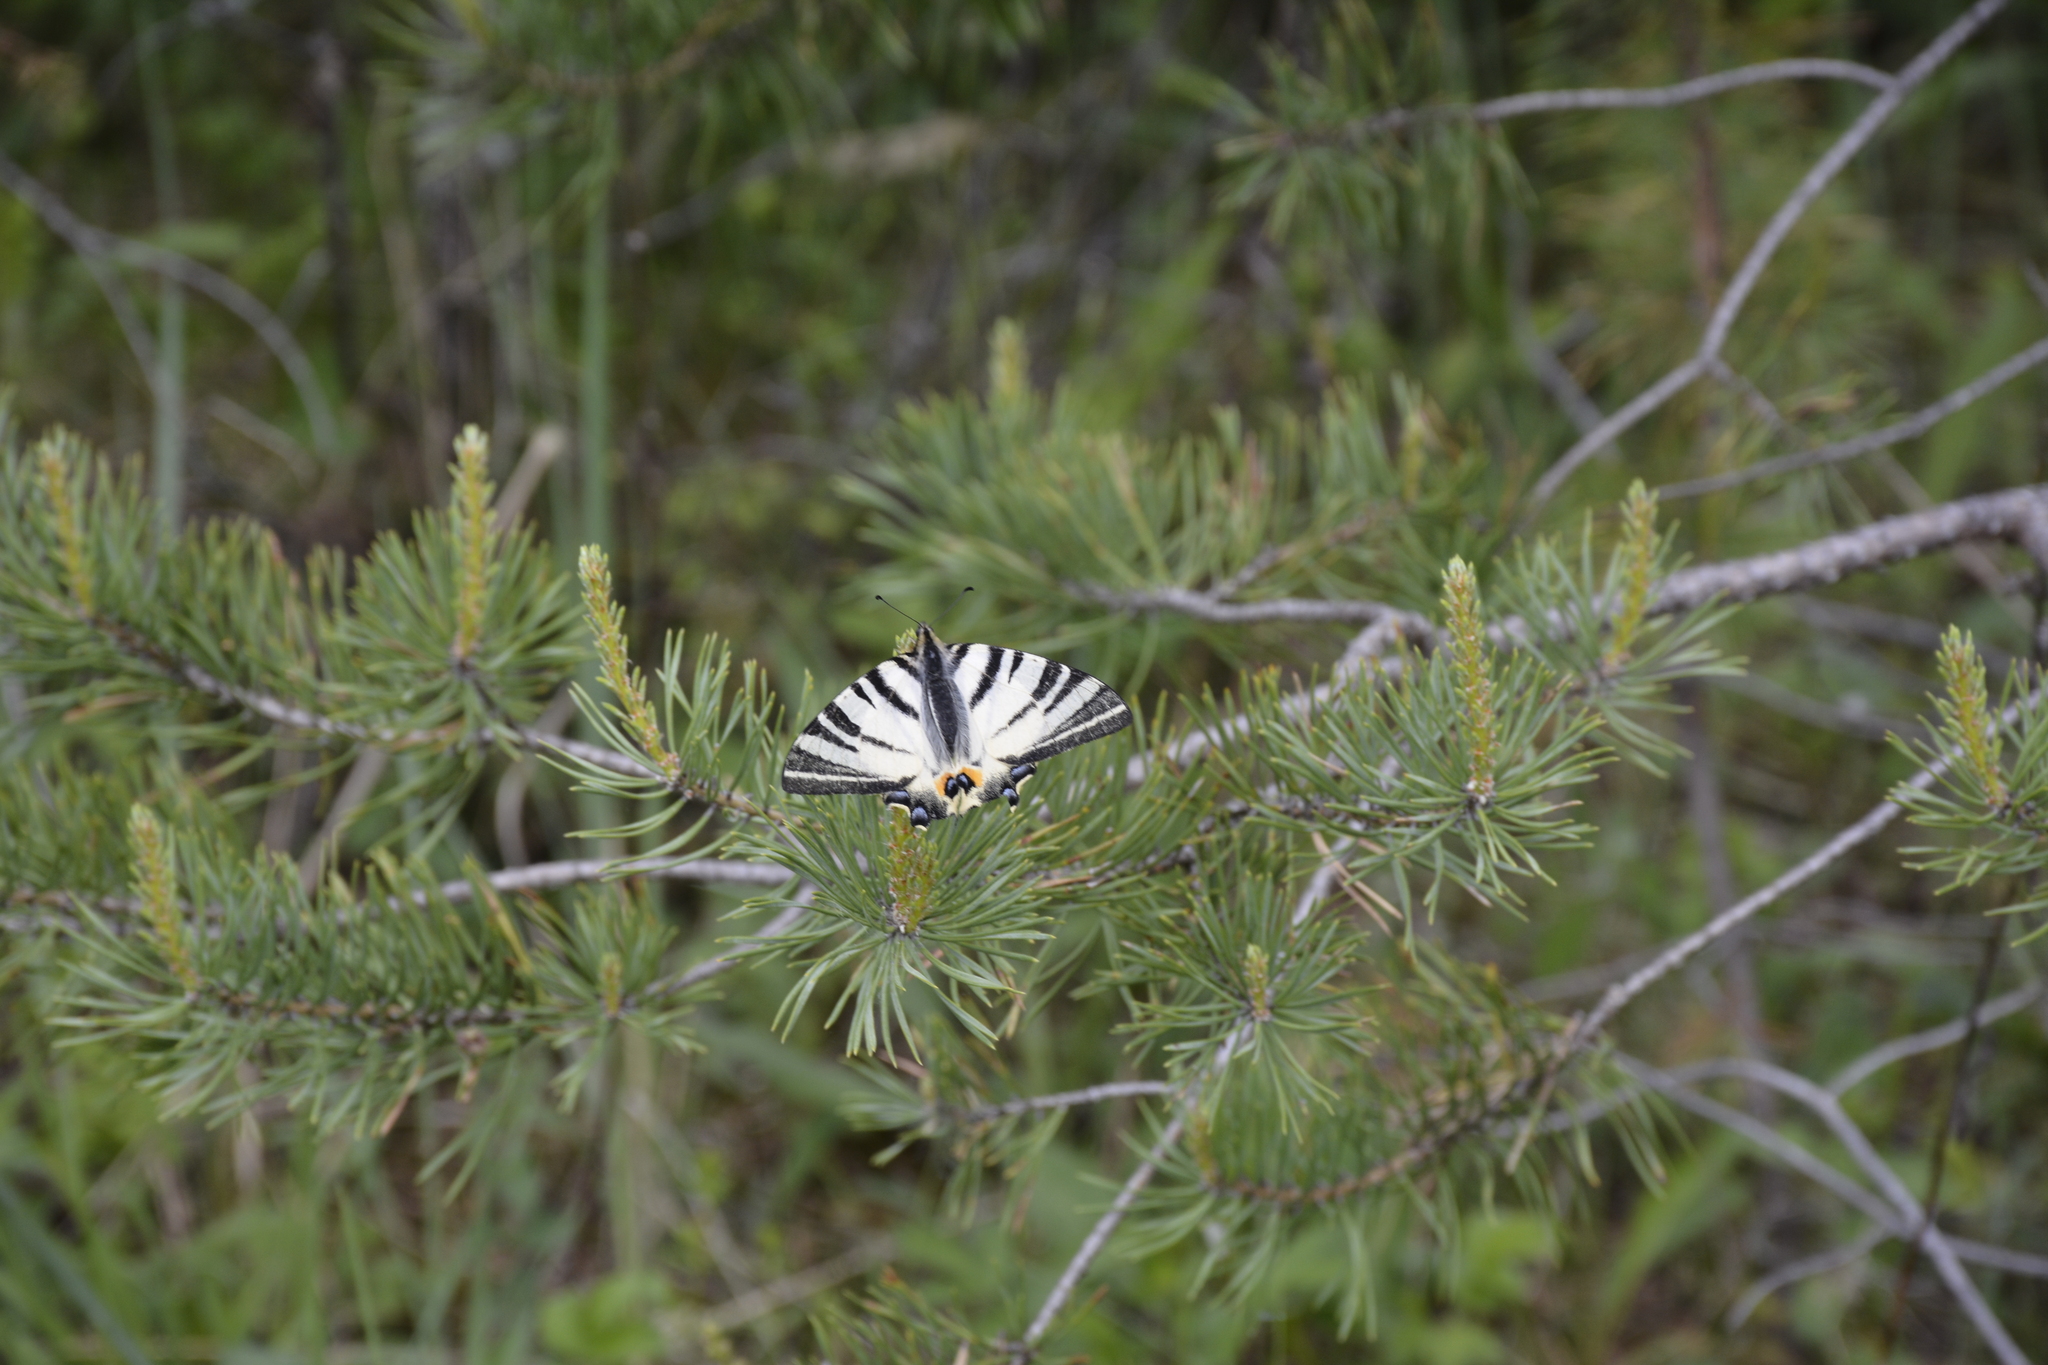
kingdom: Animalia
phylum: Arthropoda
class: Insecta
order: Lepidoptera
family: Papilionidae
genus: Iphiclides
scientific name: Iphiclides podalirius
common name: Scarce swallowtail
